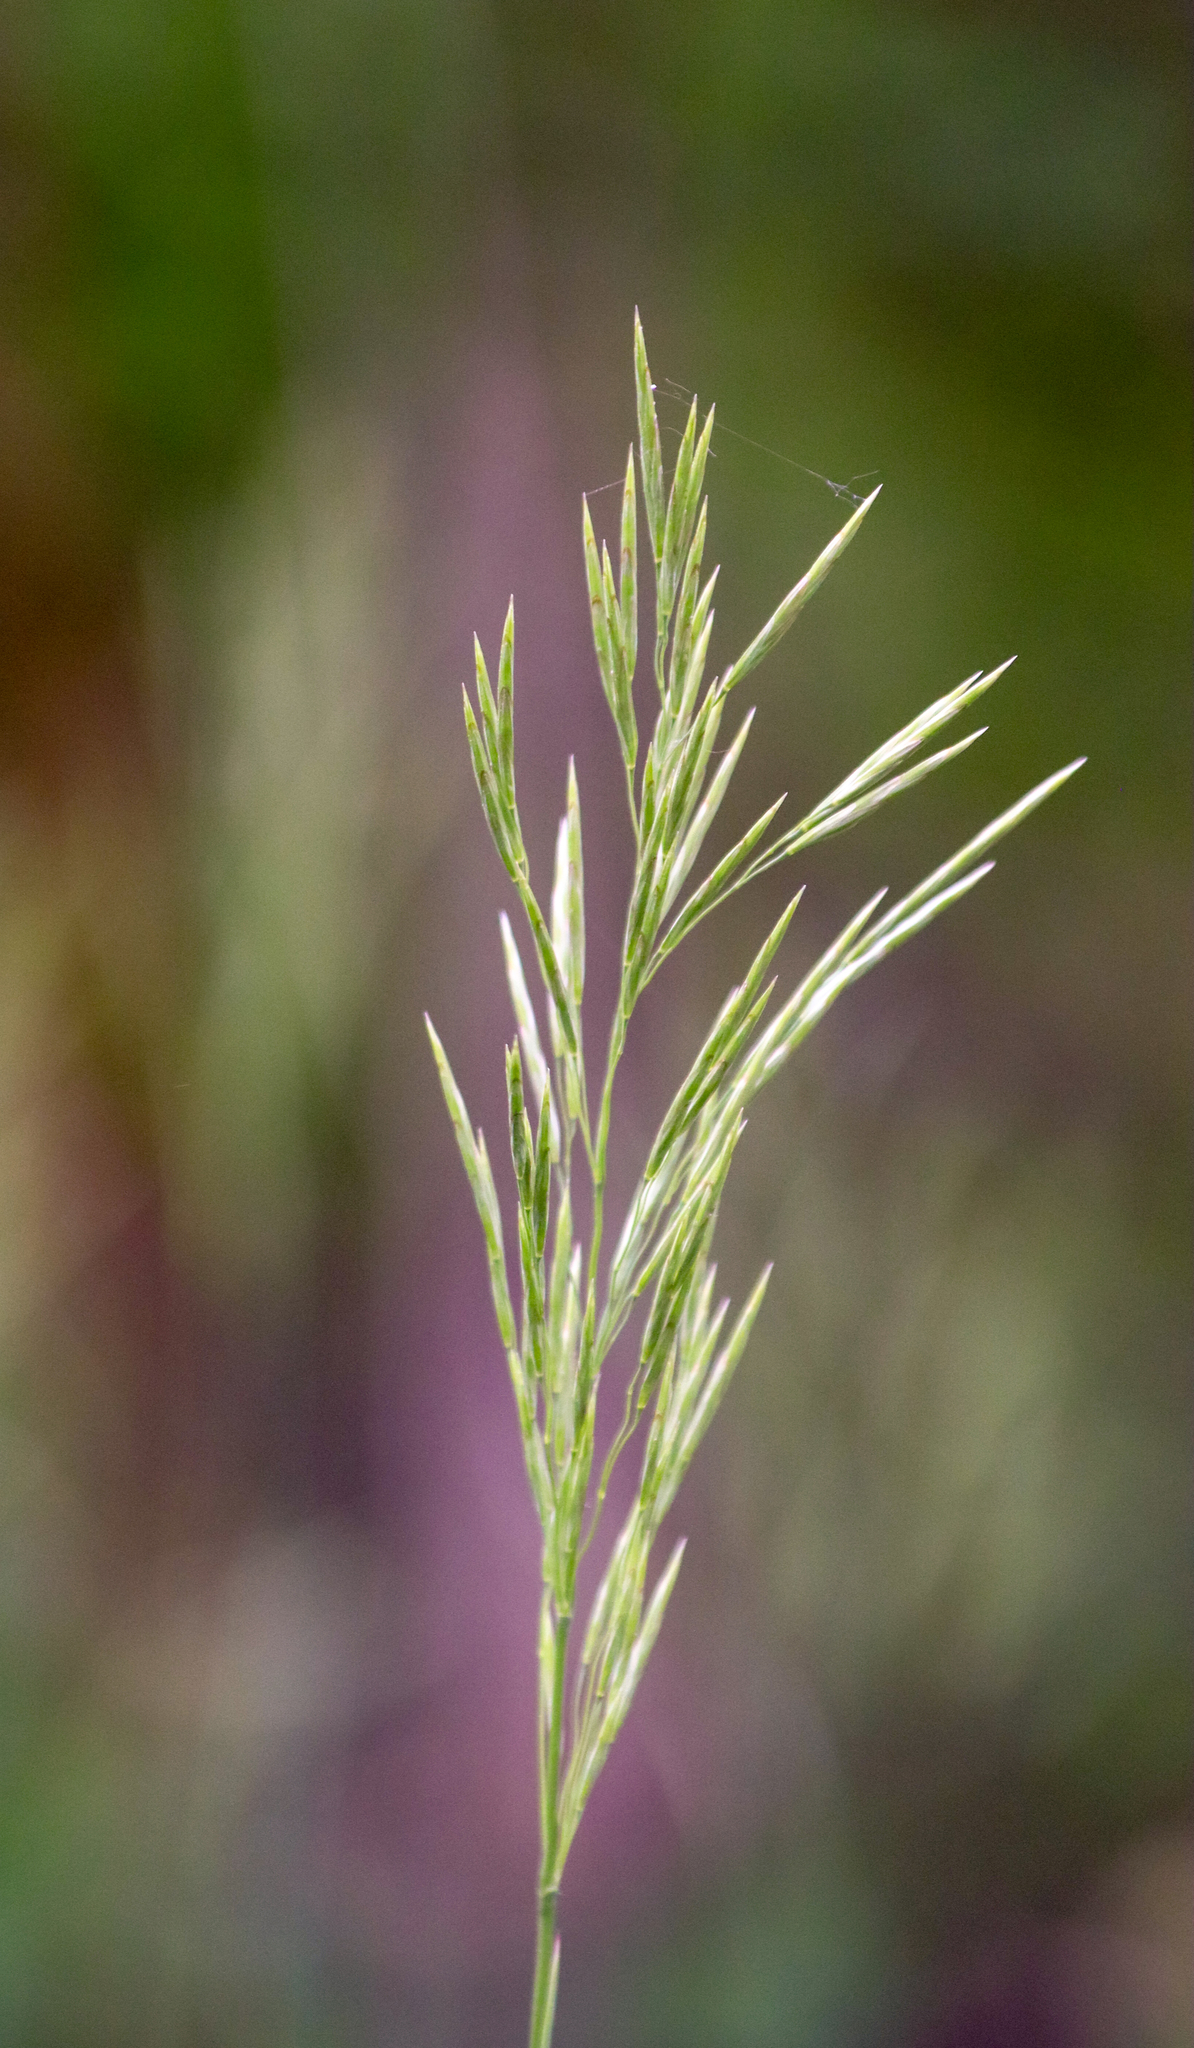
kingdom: Plantae
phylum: Tracheophyta
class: Liliopsida
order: Poales
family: Poaceae
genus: Bromus
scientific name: Bromus inermis
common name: Smooth brome
